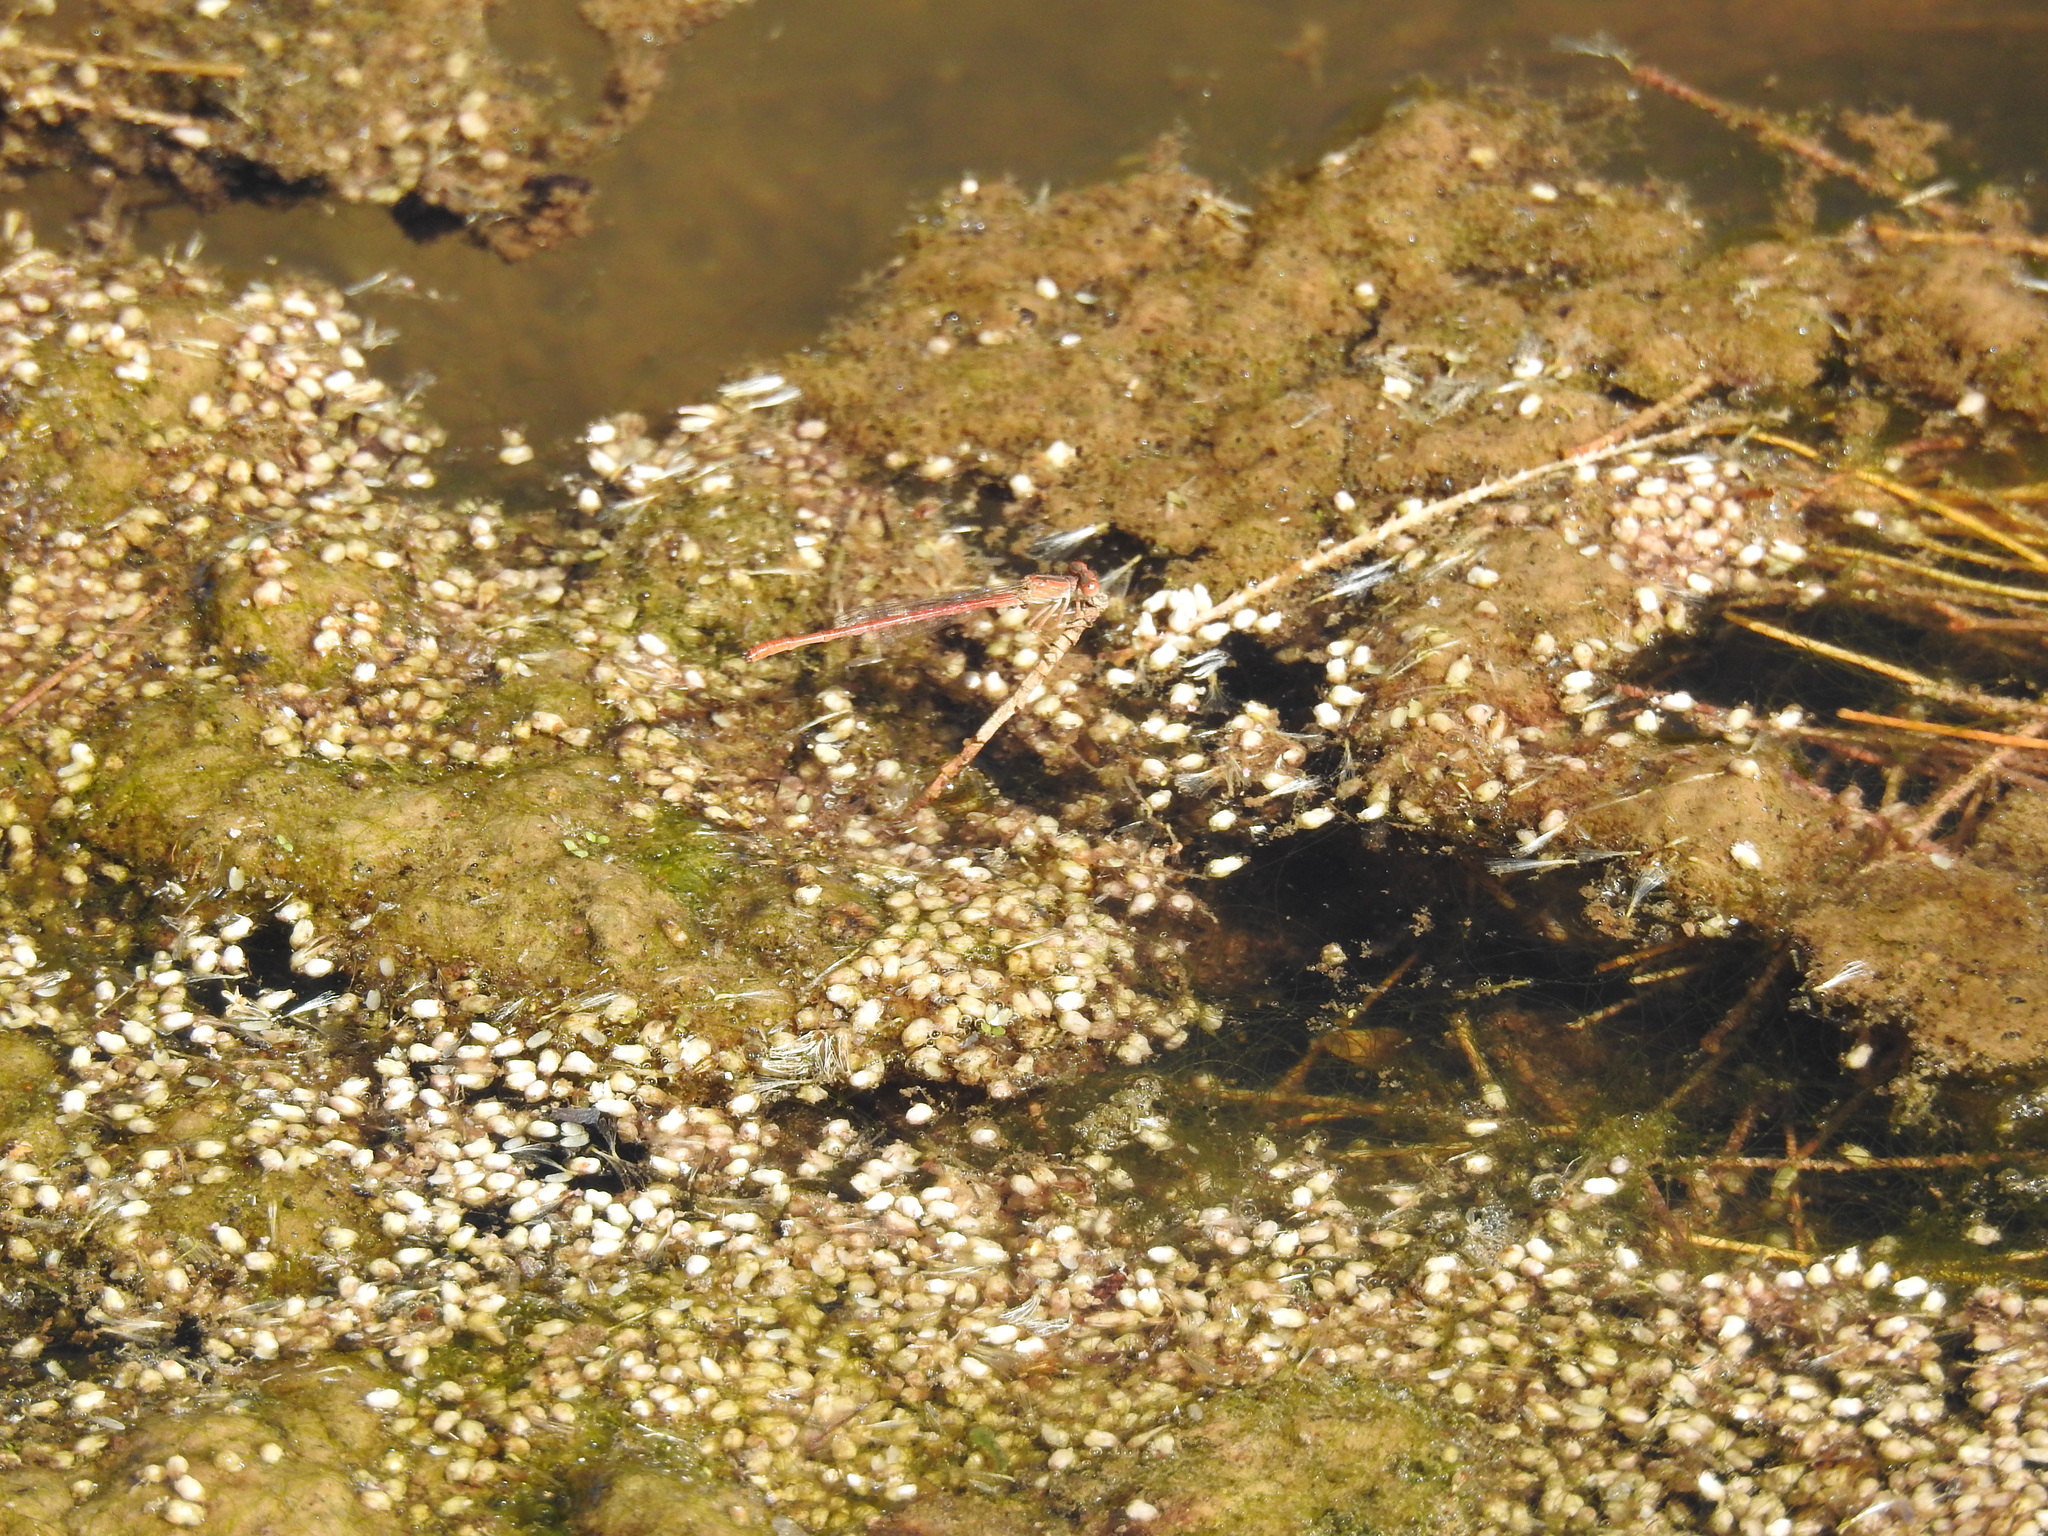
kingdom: Animalia
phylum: Arthropoda
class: Insecta
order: Odonata
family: Coenagrionidae
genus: Telebasis
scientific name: Telebasis salva
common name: Desert firetail
